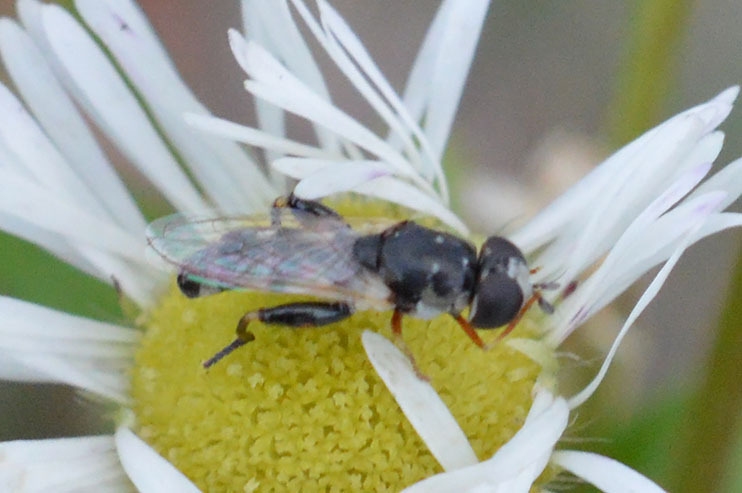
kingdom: Animalia
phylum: Arthropoda
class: Insecta
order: Diptera
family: Syrphidae
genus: Syritta
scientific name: Syritta pipiens
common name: Hover fly
